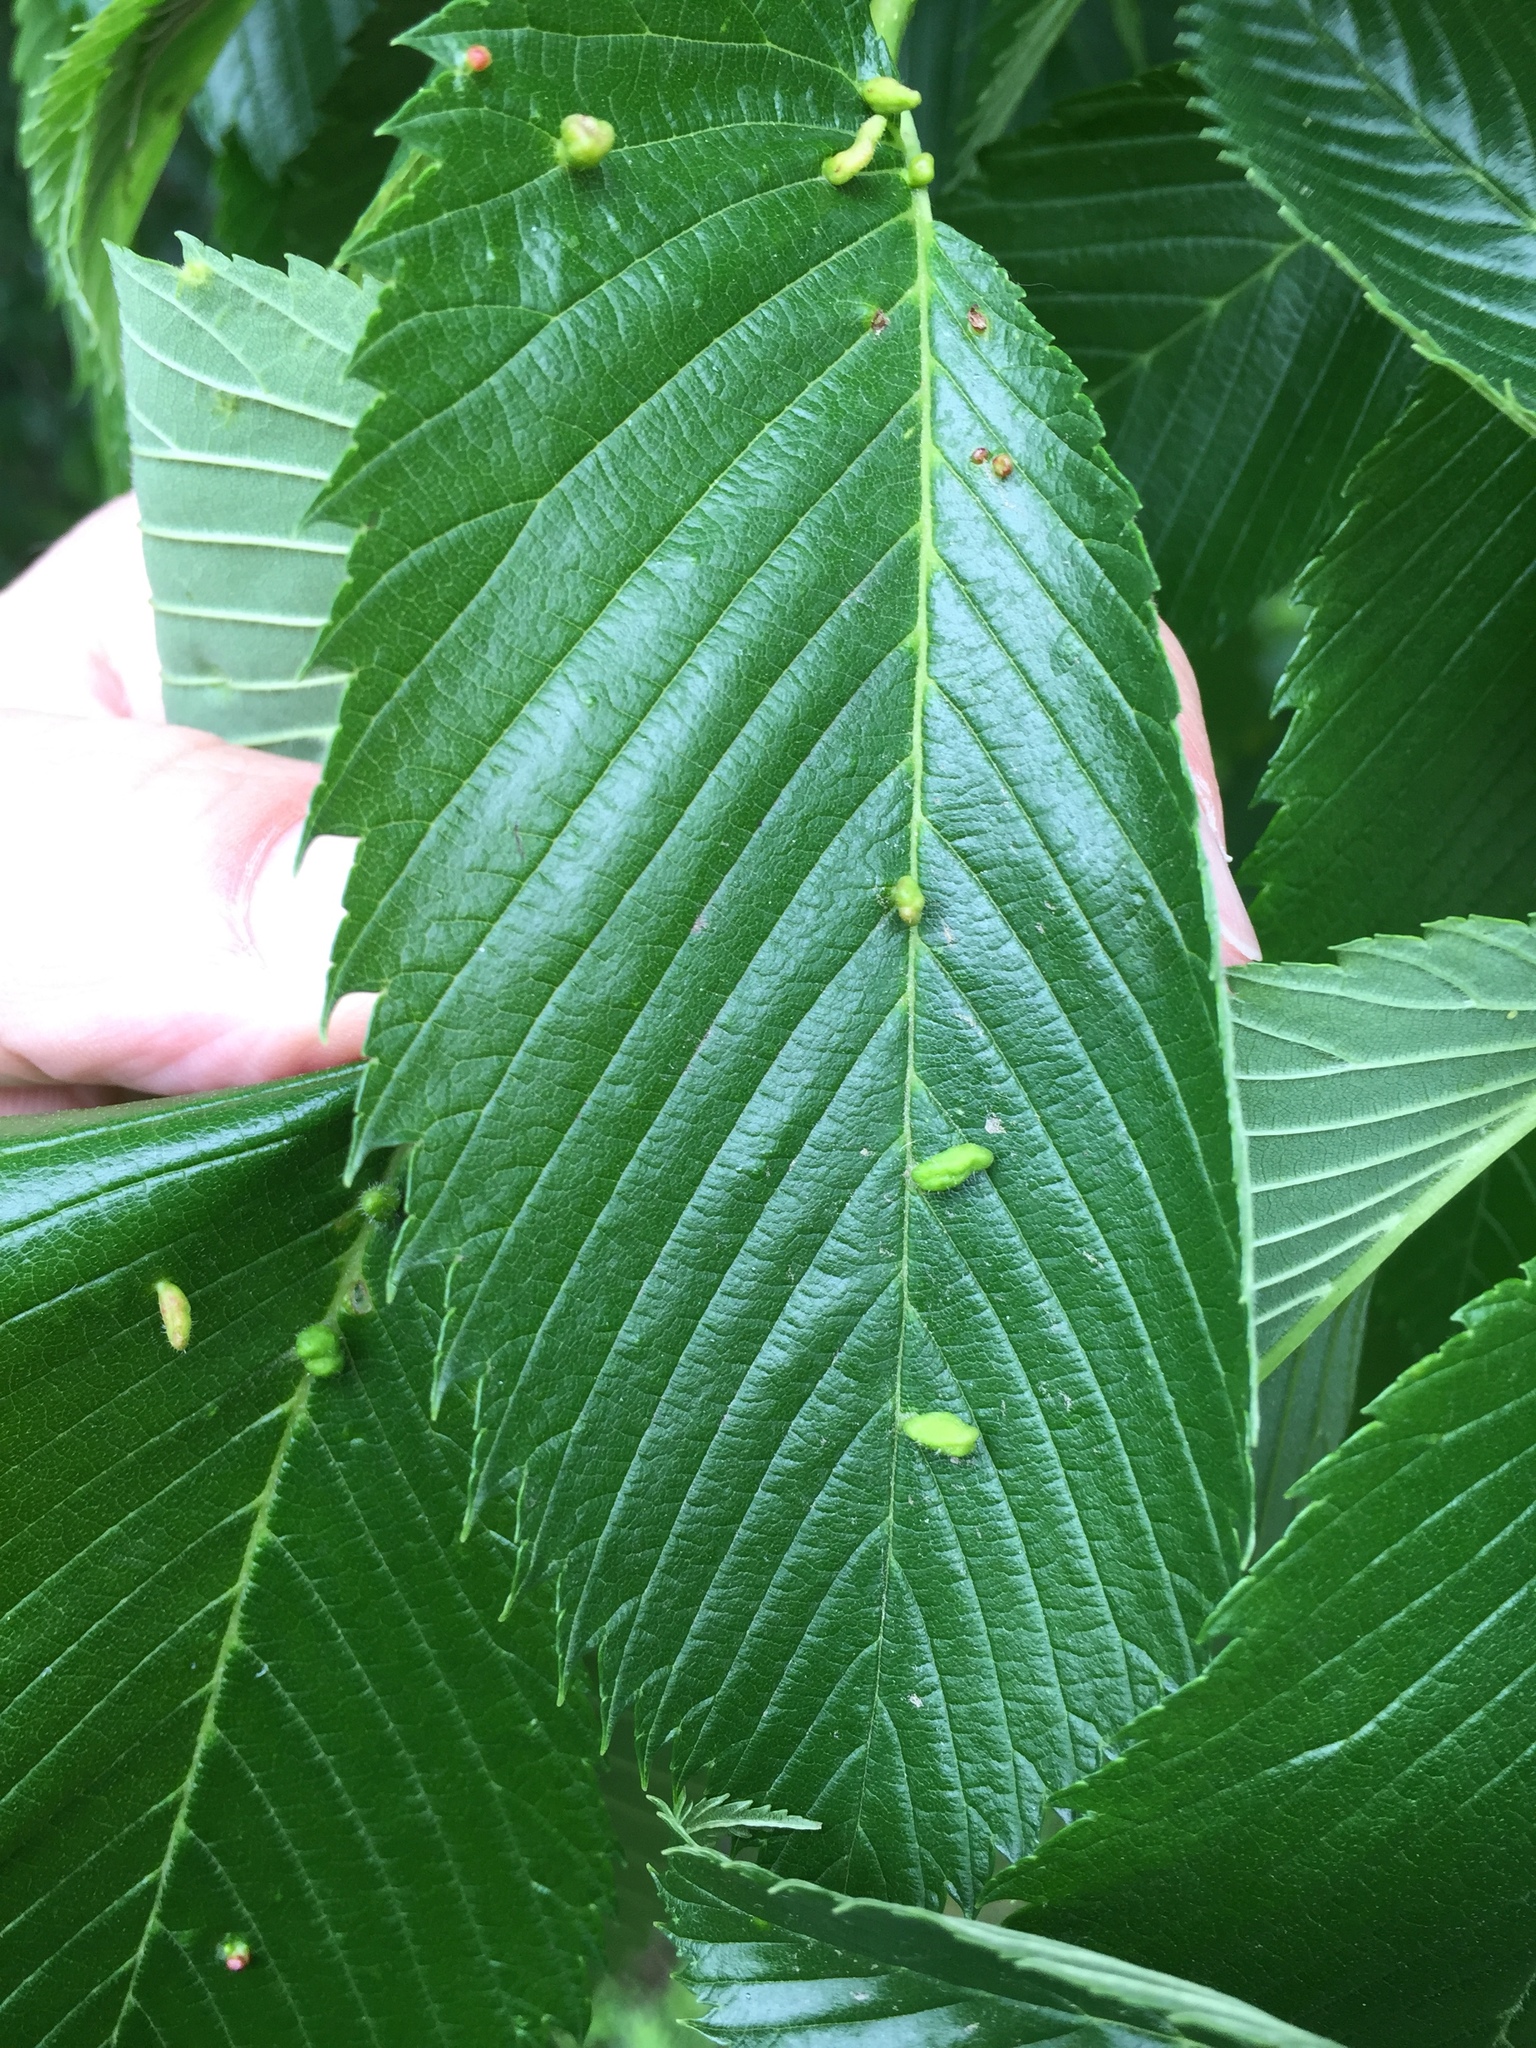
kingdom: Animalia
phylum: Arthropoda
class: Arachnida
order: Trombidiformes
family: Eriophyidae
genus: Aceria
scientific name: Aceria
